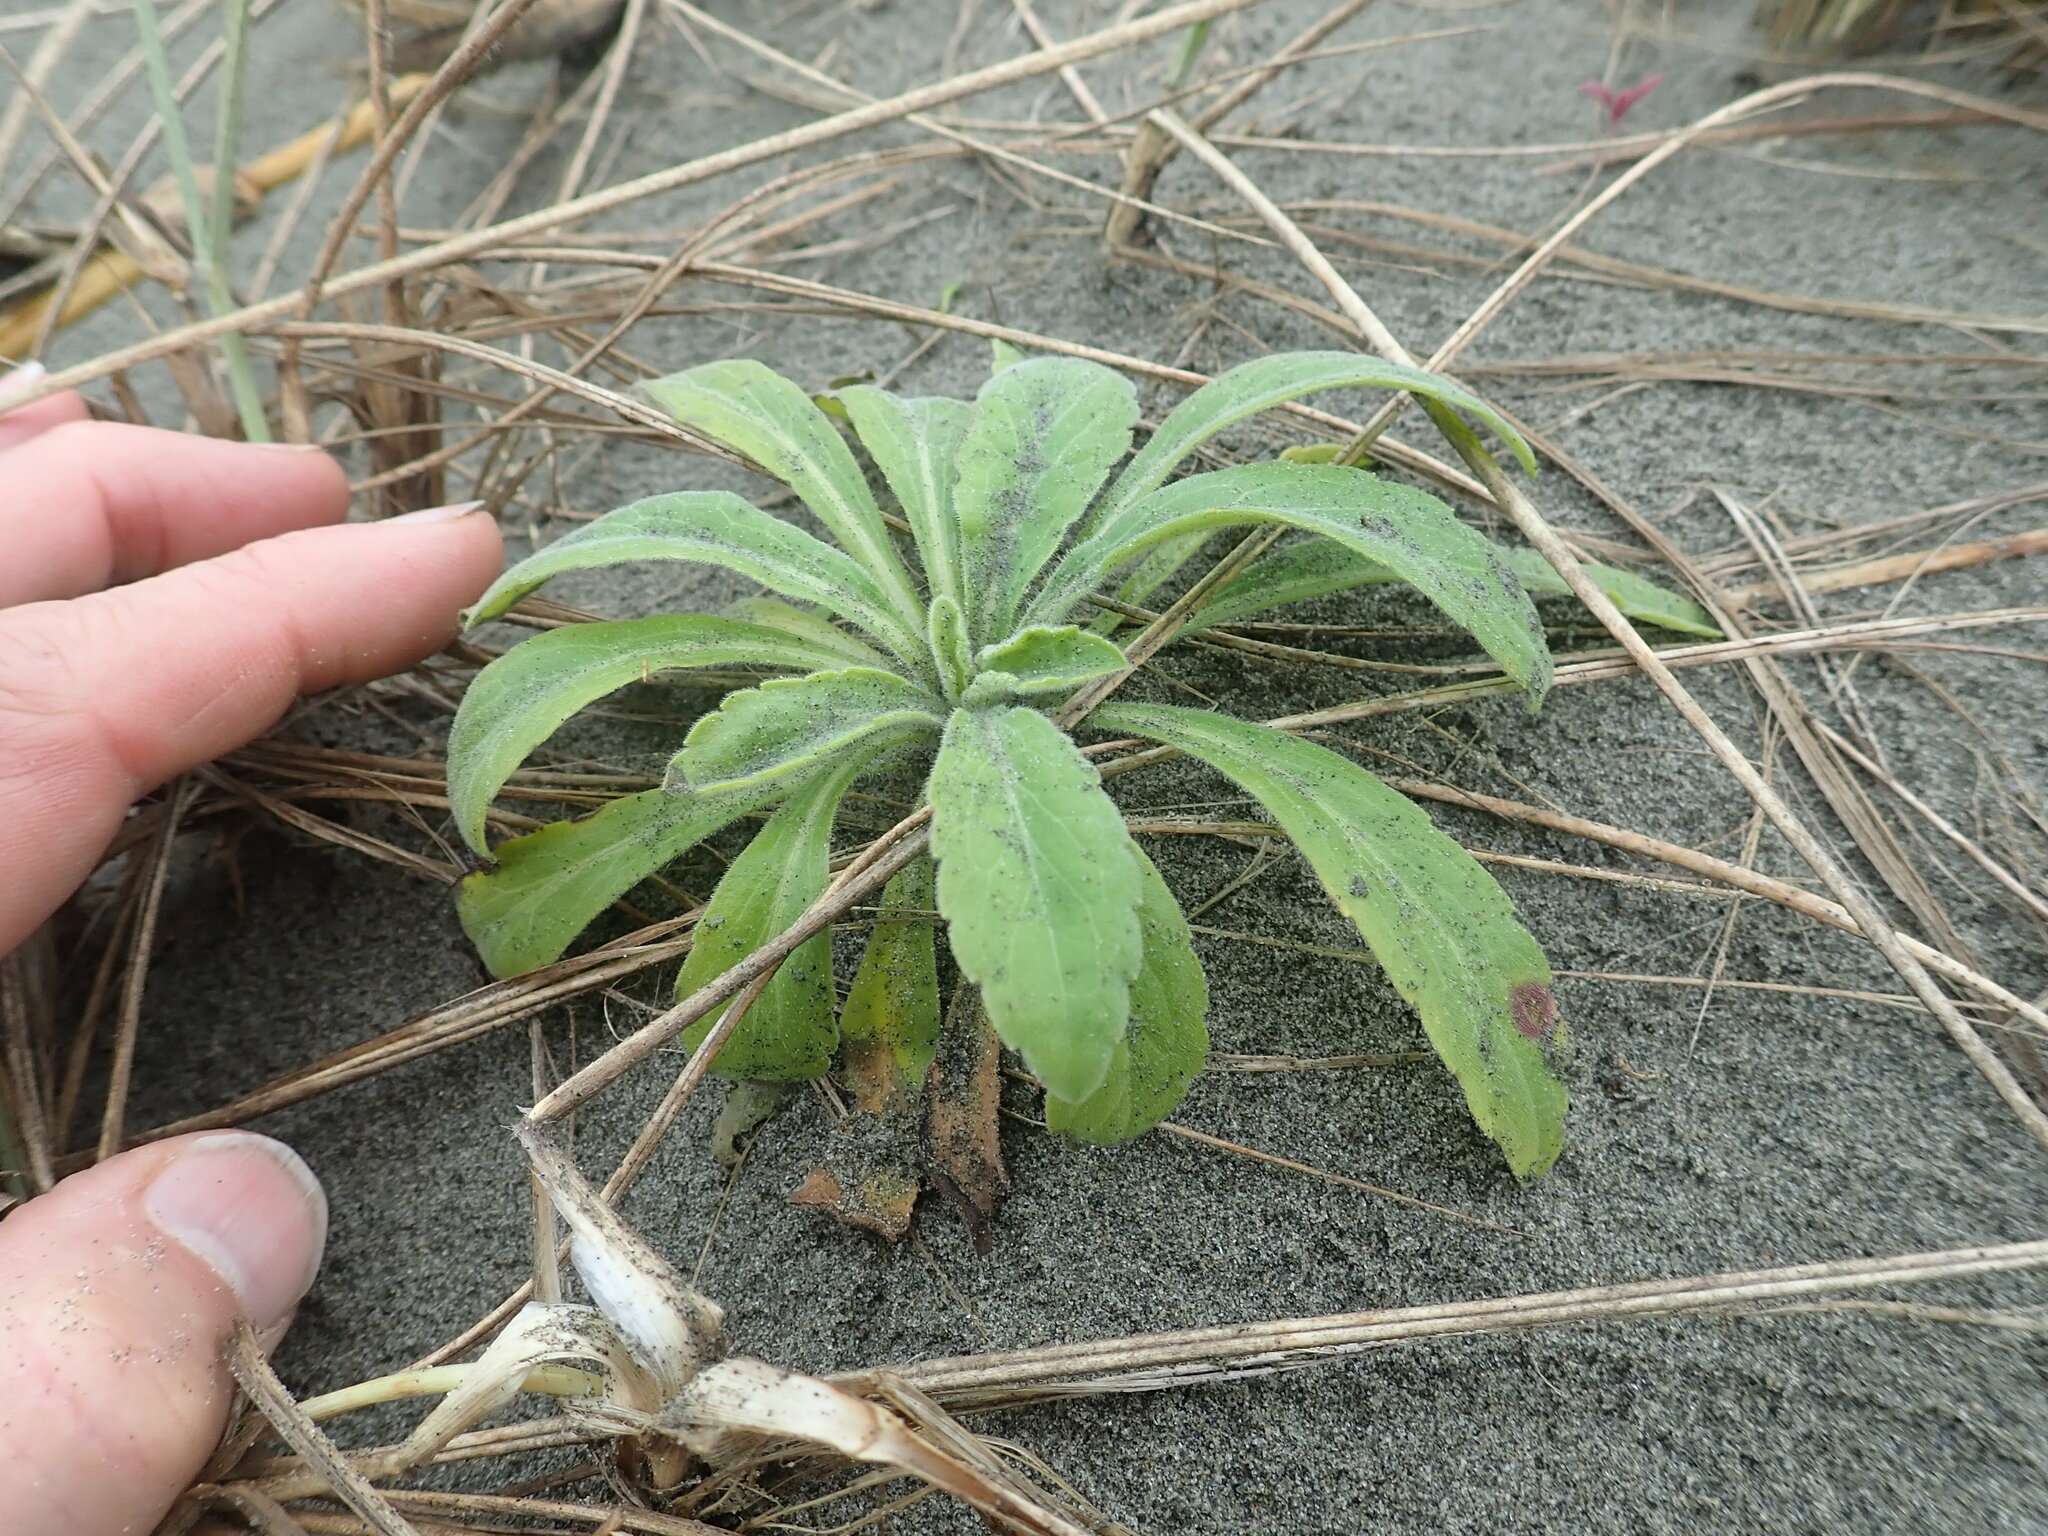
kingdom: Plantae
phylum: Tracheophyta
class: Magnoliopsida
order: Asterales
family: Asteraceae
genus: Erigeron
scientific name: Erigeron sumatrensis
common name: Daisy
